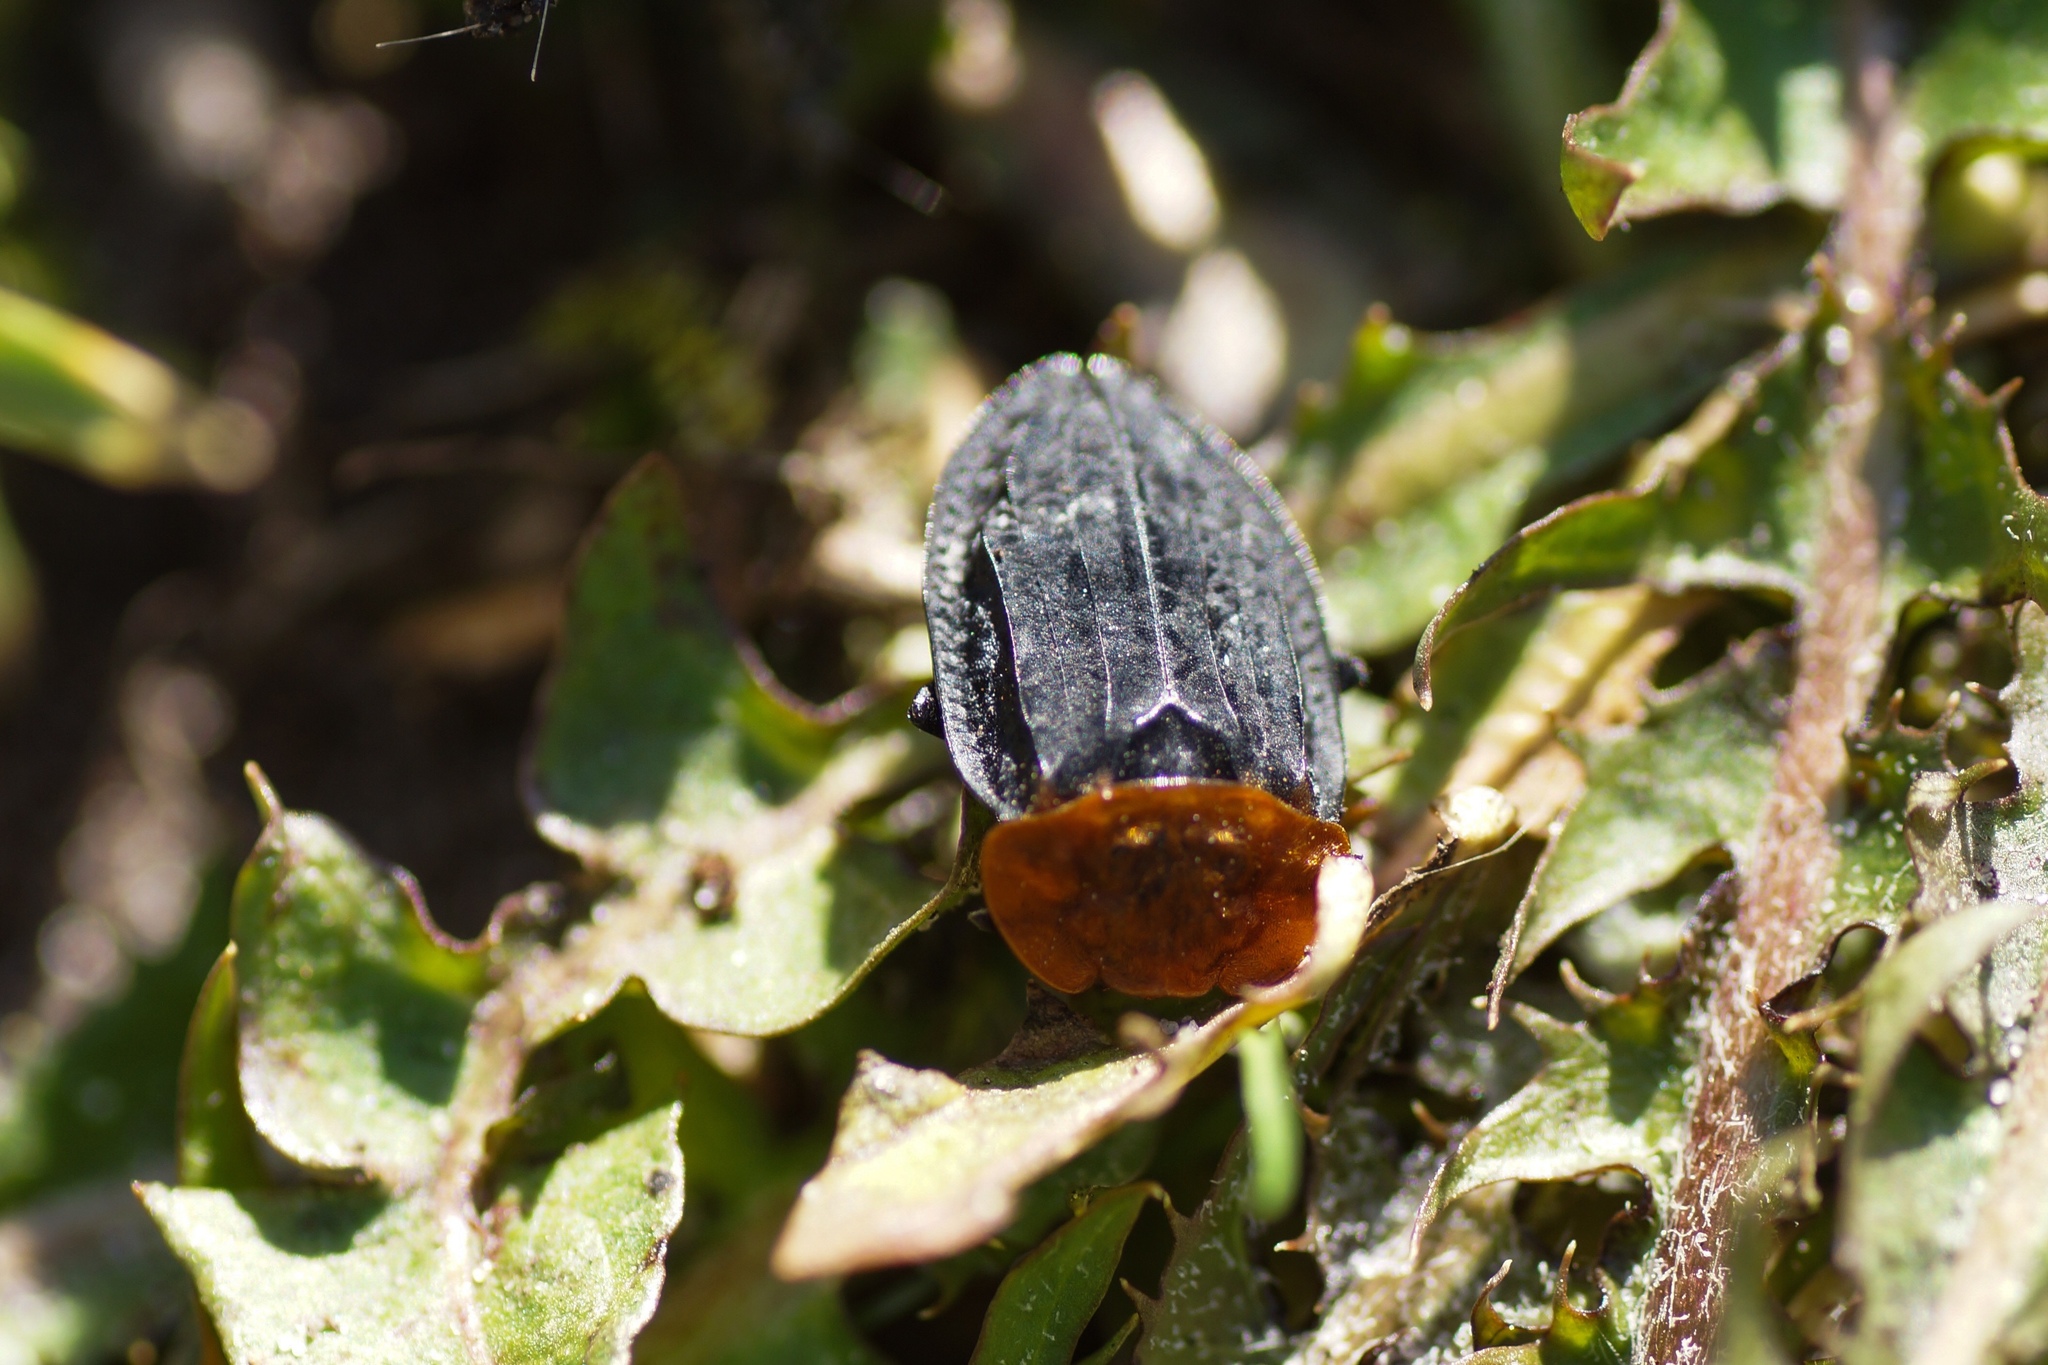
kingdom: Animalia
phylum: Arthropoda
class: Insecta
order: Coleoptera
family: Staphylinidae
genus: Oiceoptoma
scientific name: Oiceoptoma thoracicum
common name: Red-breasted carrion beetle
